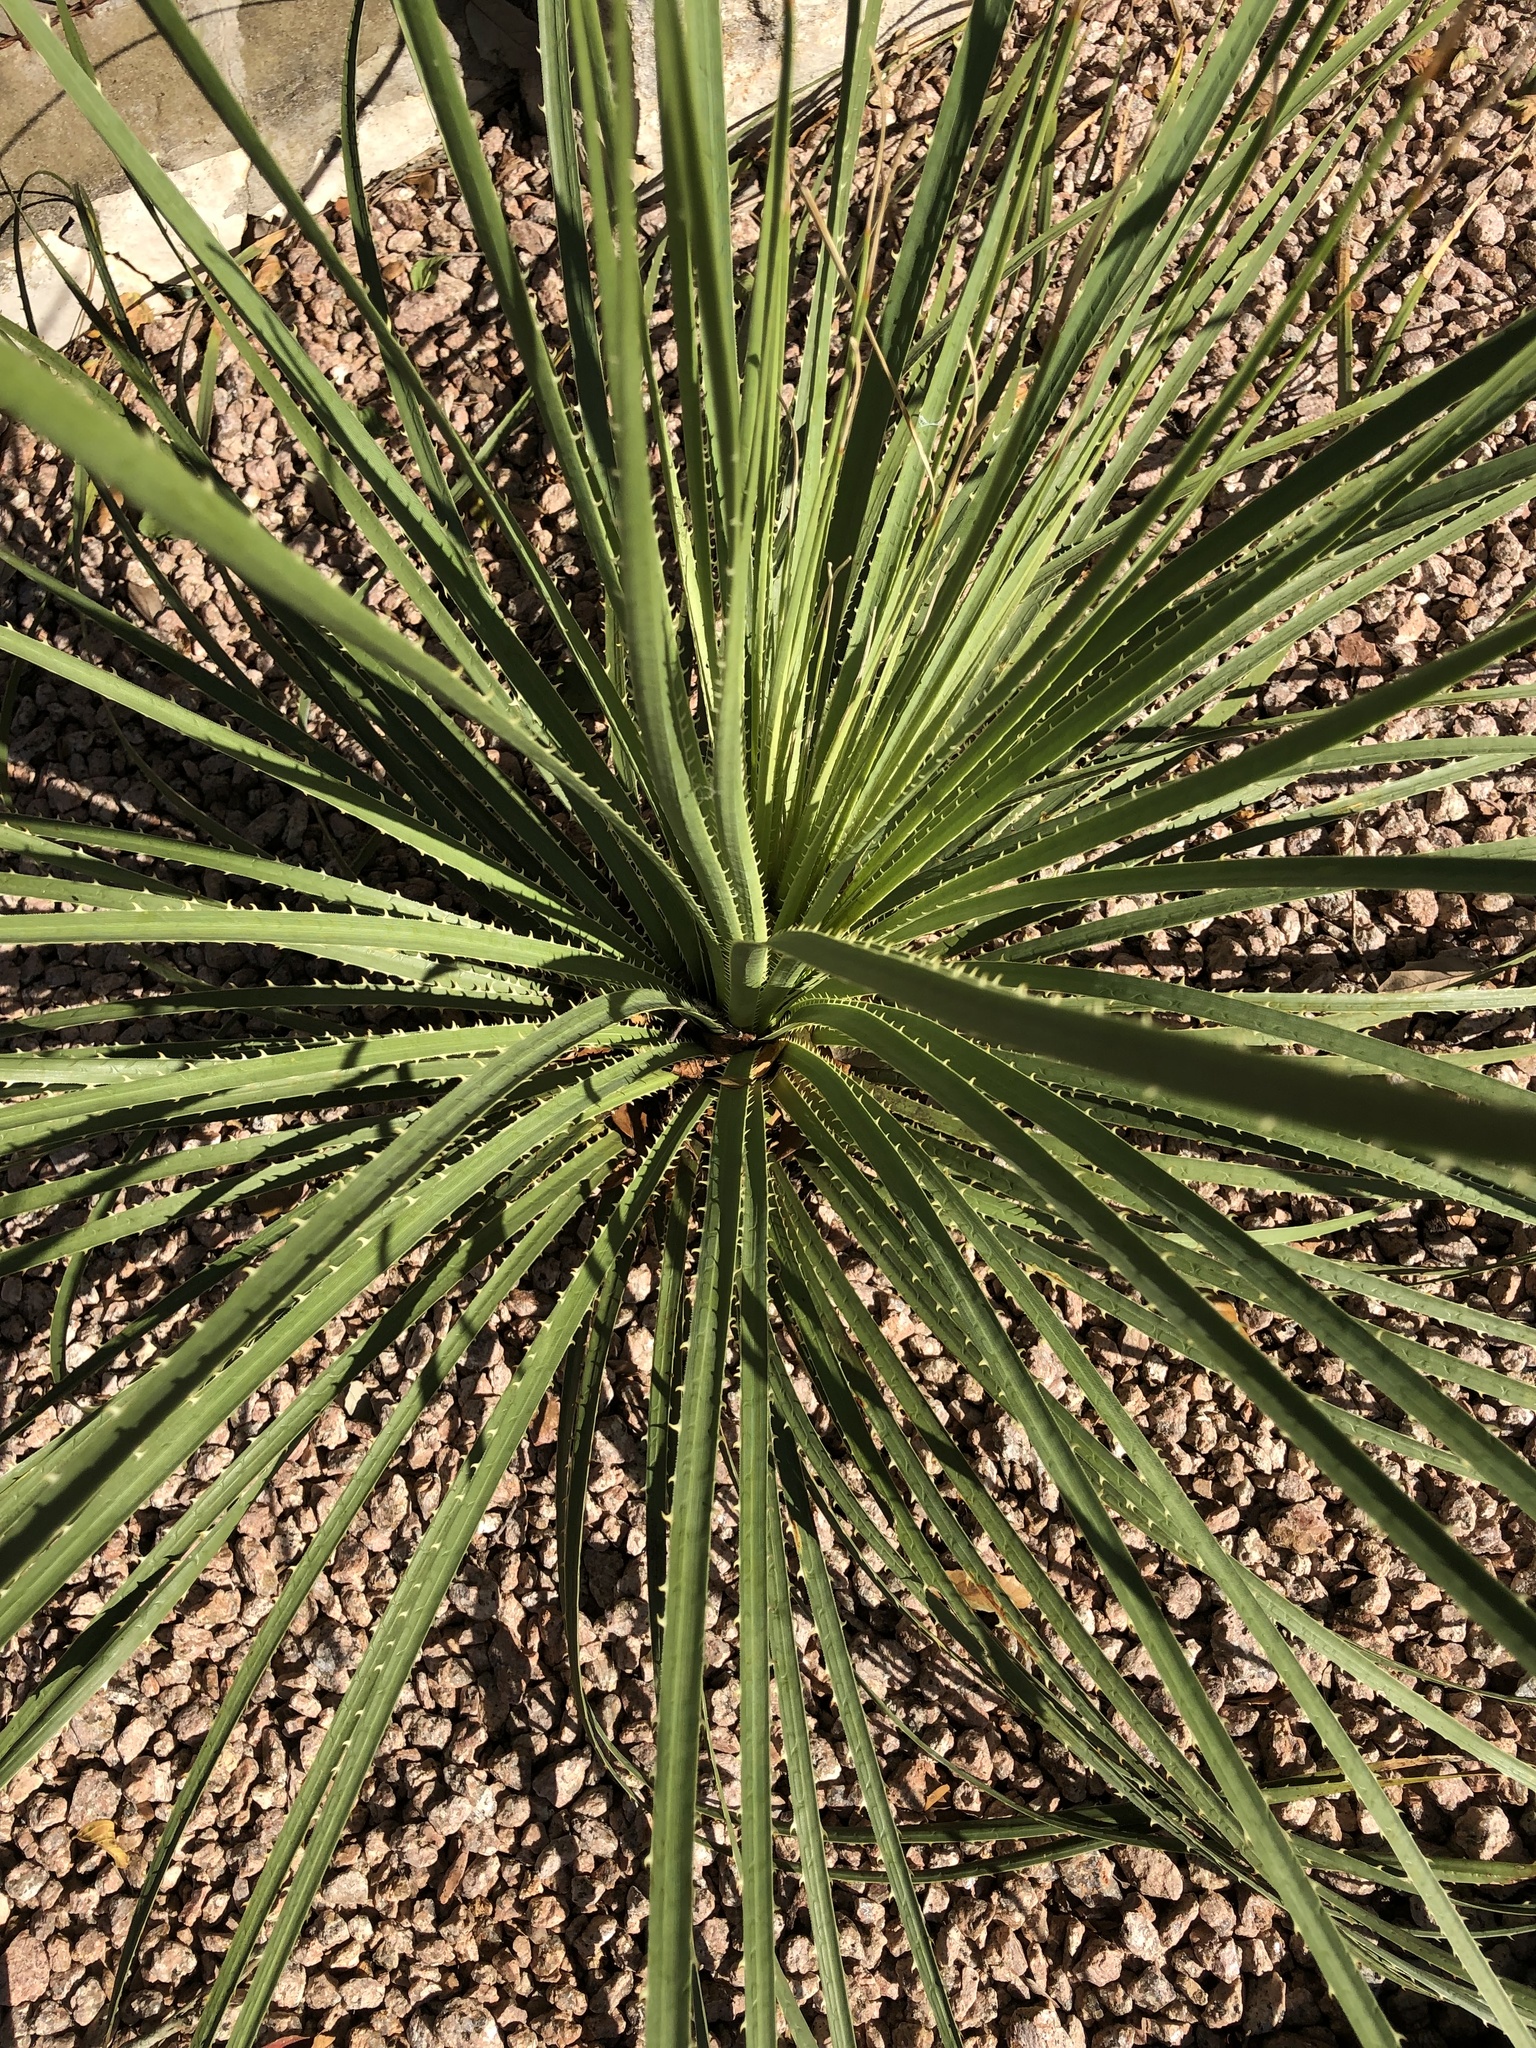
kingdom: Plantae
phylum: Tracheophyta
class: Liliopsida
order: Asparagales
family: Asparagaceae
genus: Dasylirion
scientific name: Dasylirion texanum
